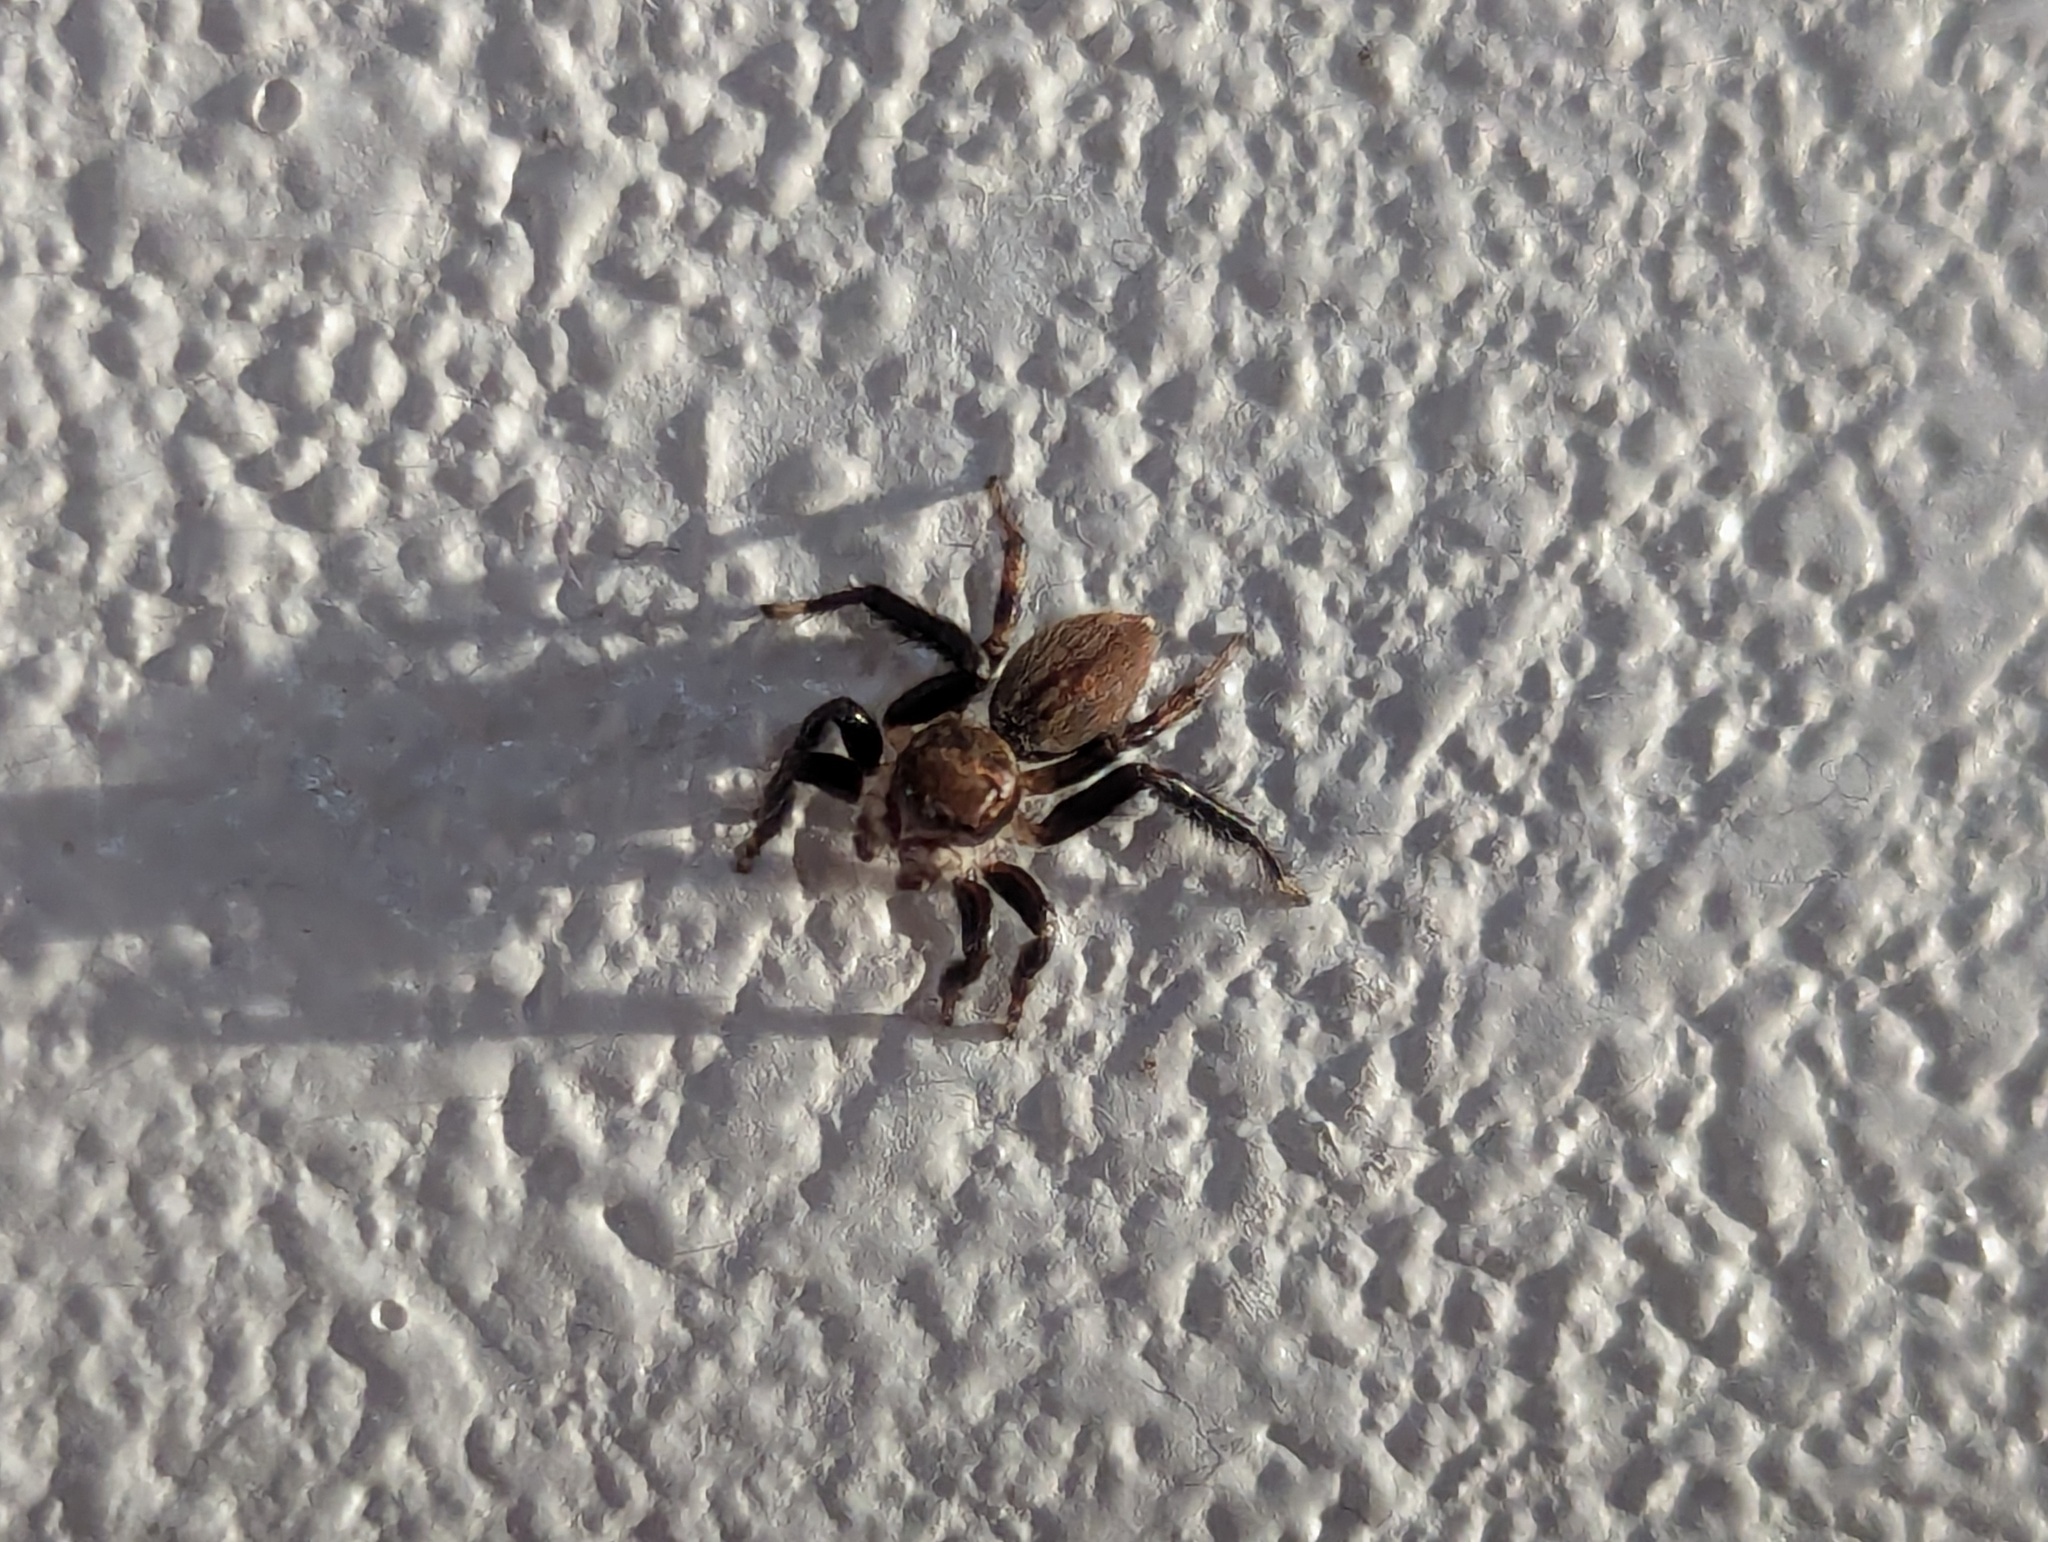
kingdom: Animalia
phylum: Arthropoda
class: Arachnida
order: Araneae
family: Salticidae
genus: Maratus
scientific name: Maratus griseus
